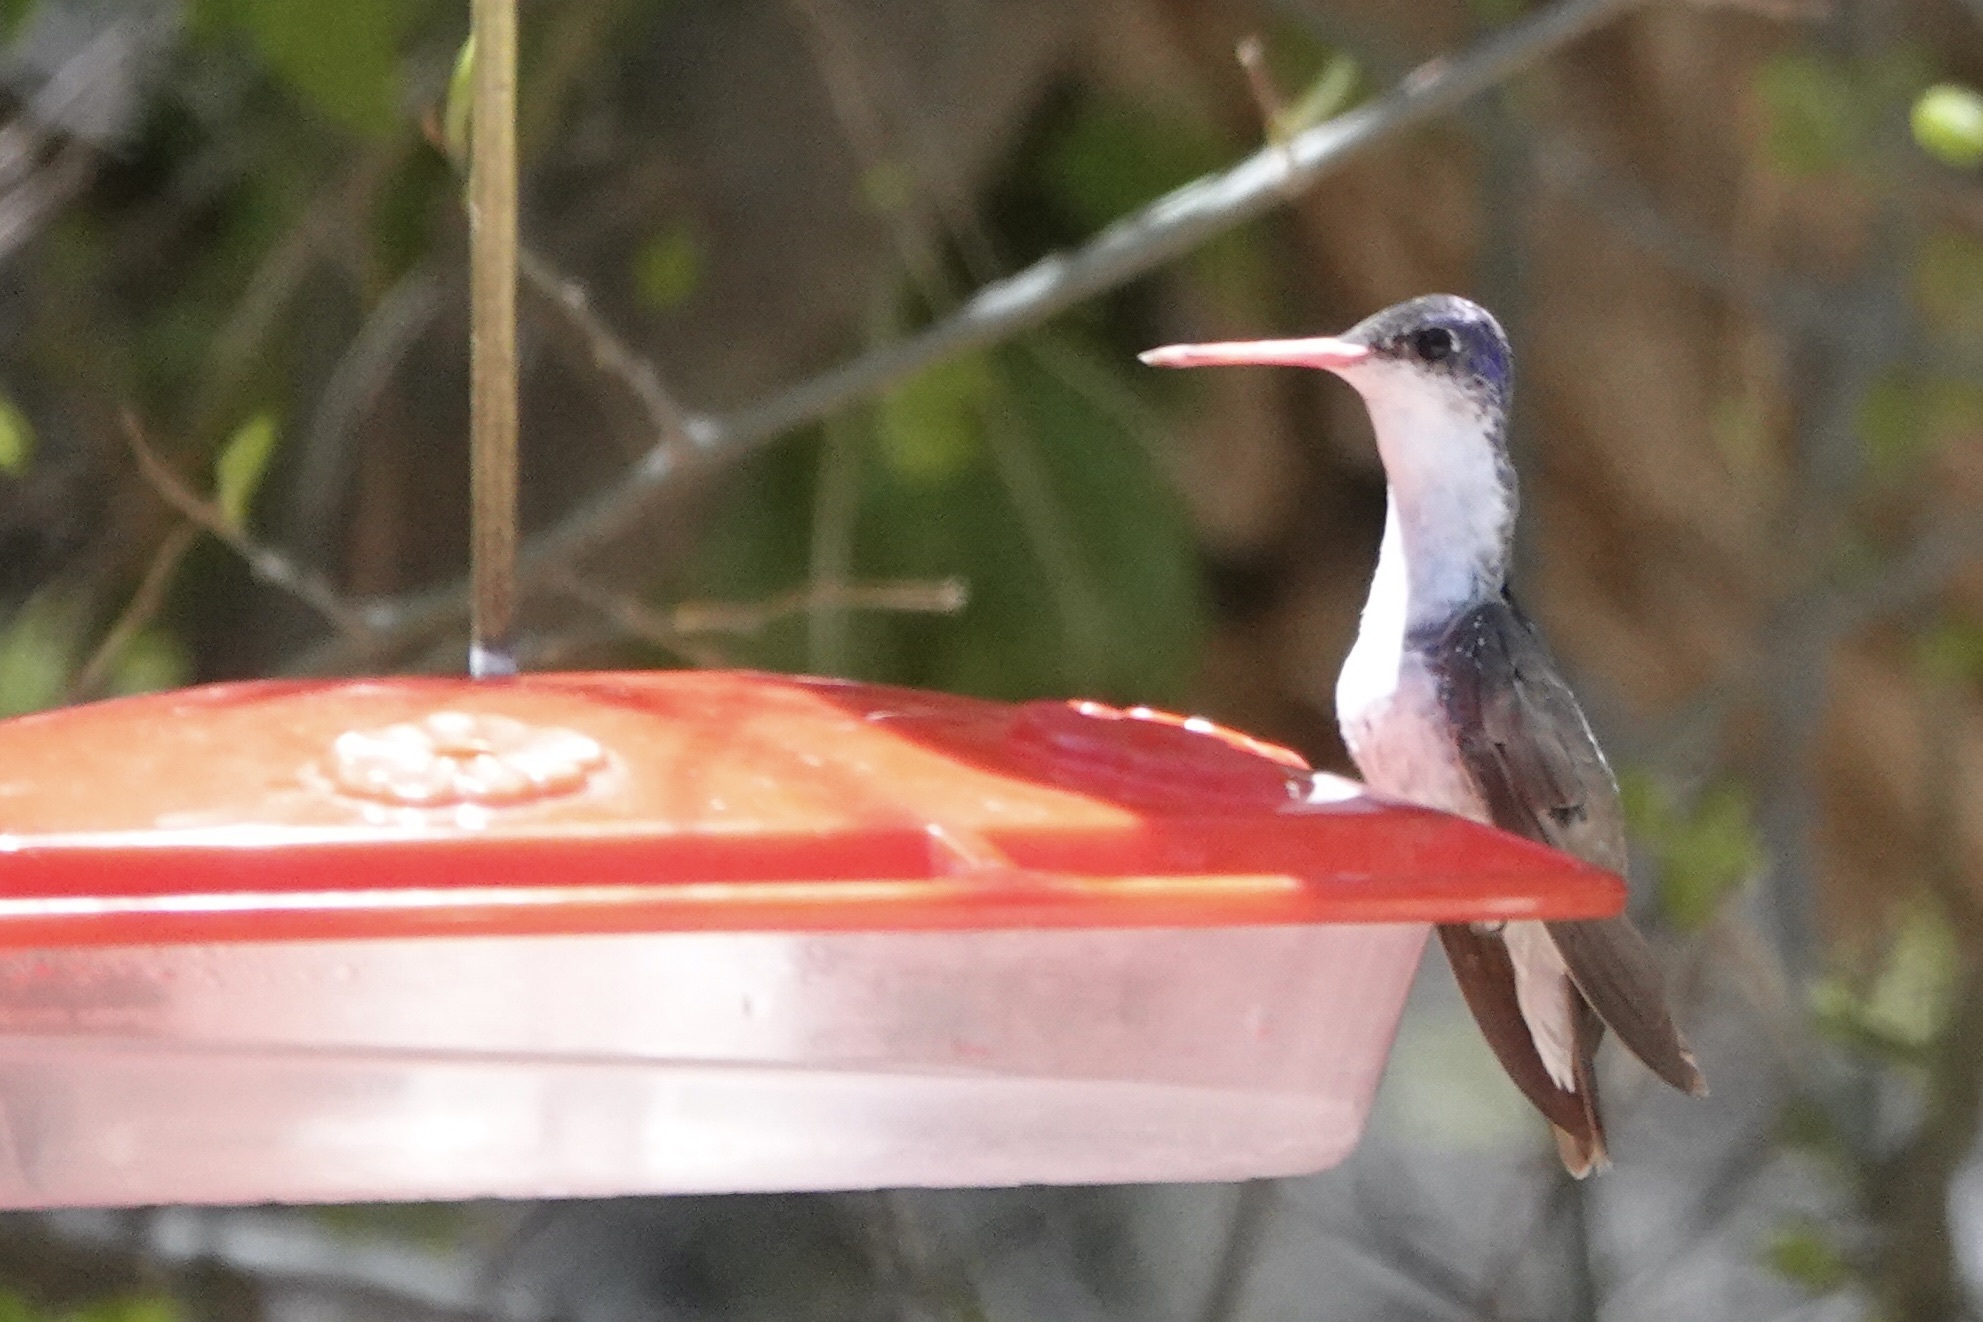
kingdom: Animalia
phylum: Chordata
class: Aves
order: Apodiformes
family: Trochilidae
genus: Leucolia
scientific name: Leucolia violiceps
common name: Violet-crowned hummingbird
